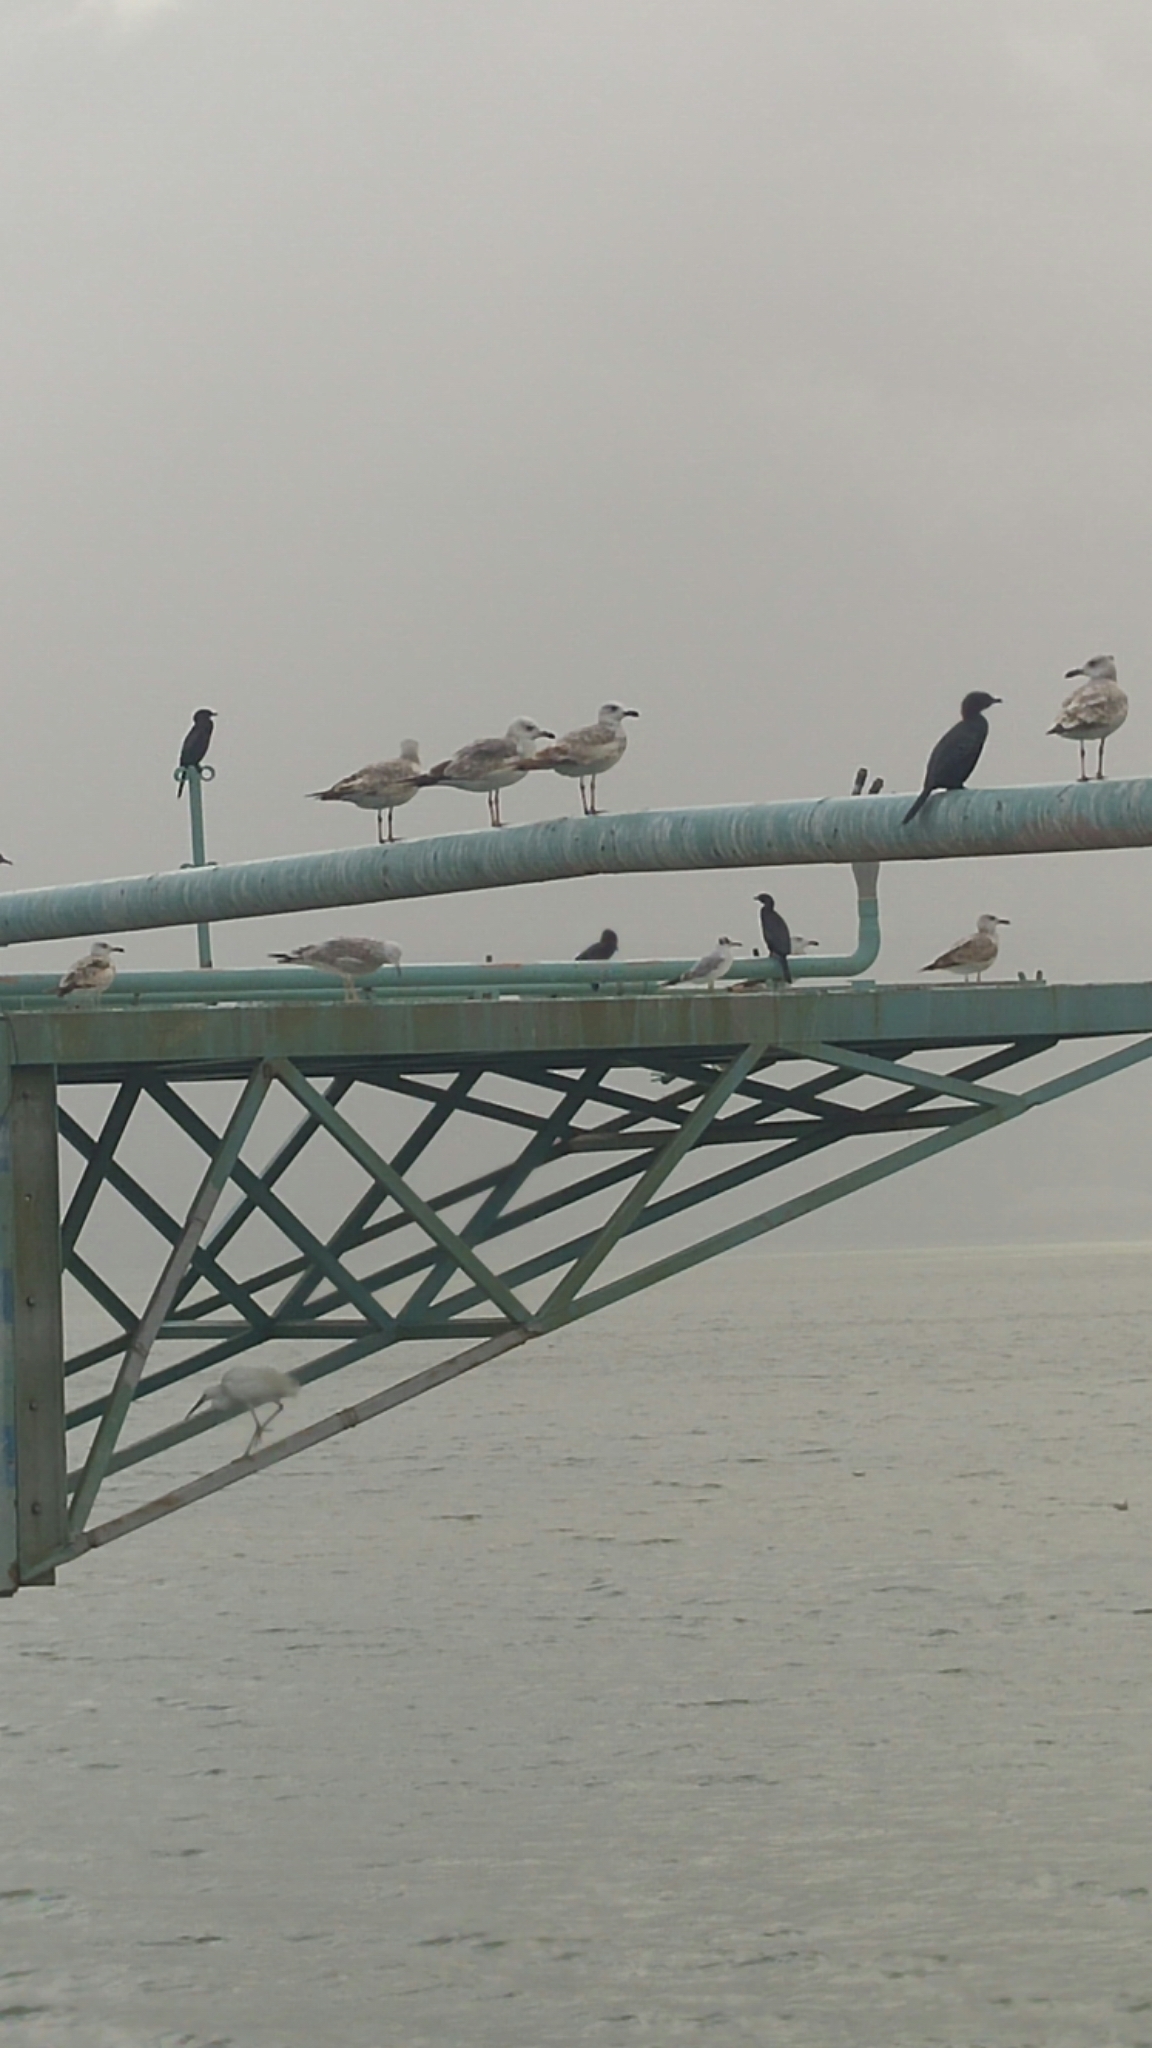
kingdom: Animalia
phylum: Chordata
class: Aves
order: Suliformes
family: Phalacrocoracidae
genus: Microcarbo
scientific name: Microcarbo pygmaeus
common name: Pygmy cormorant
